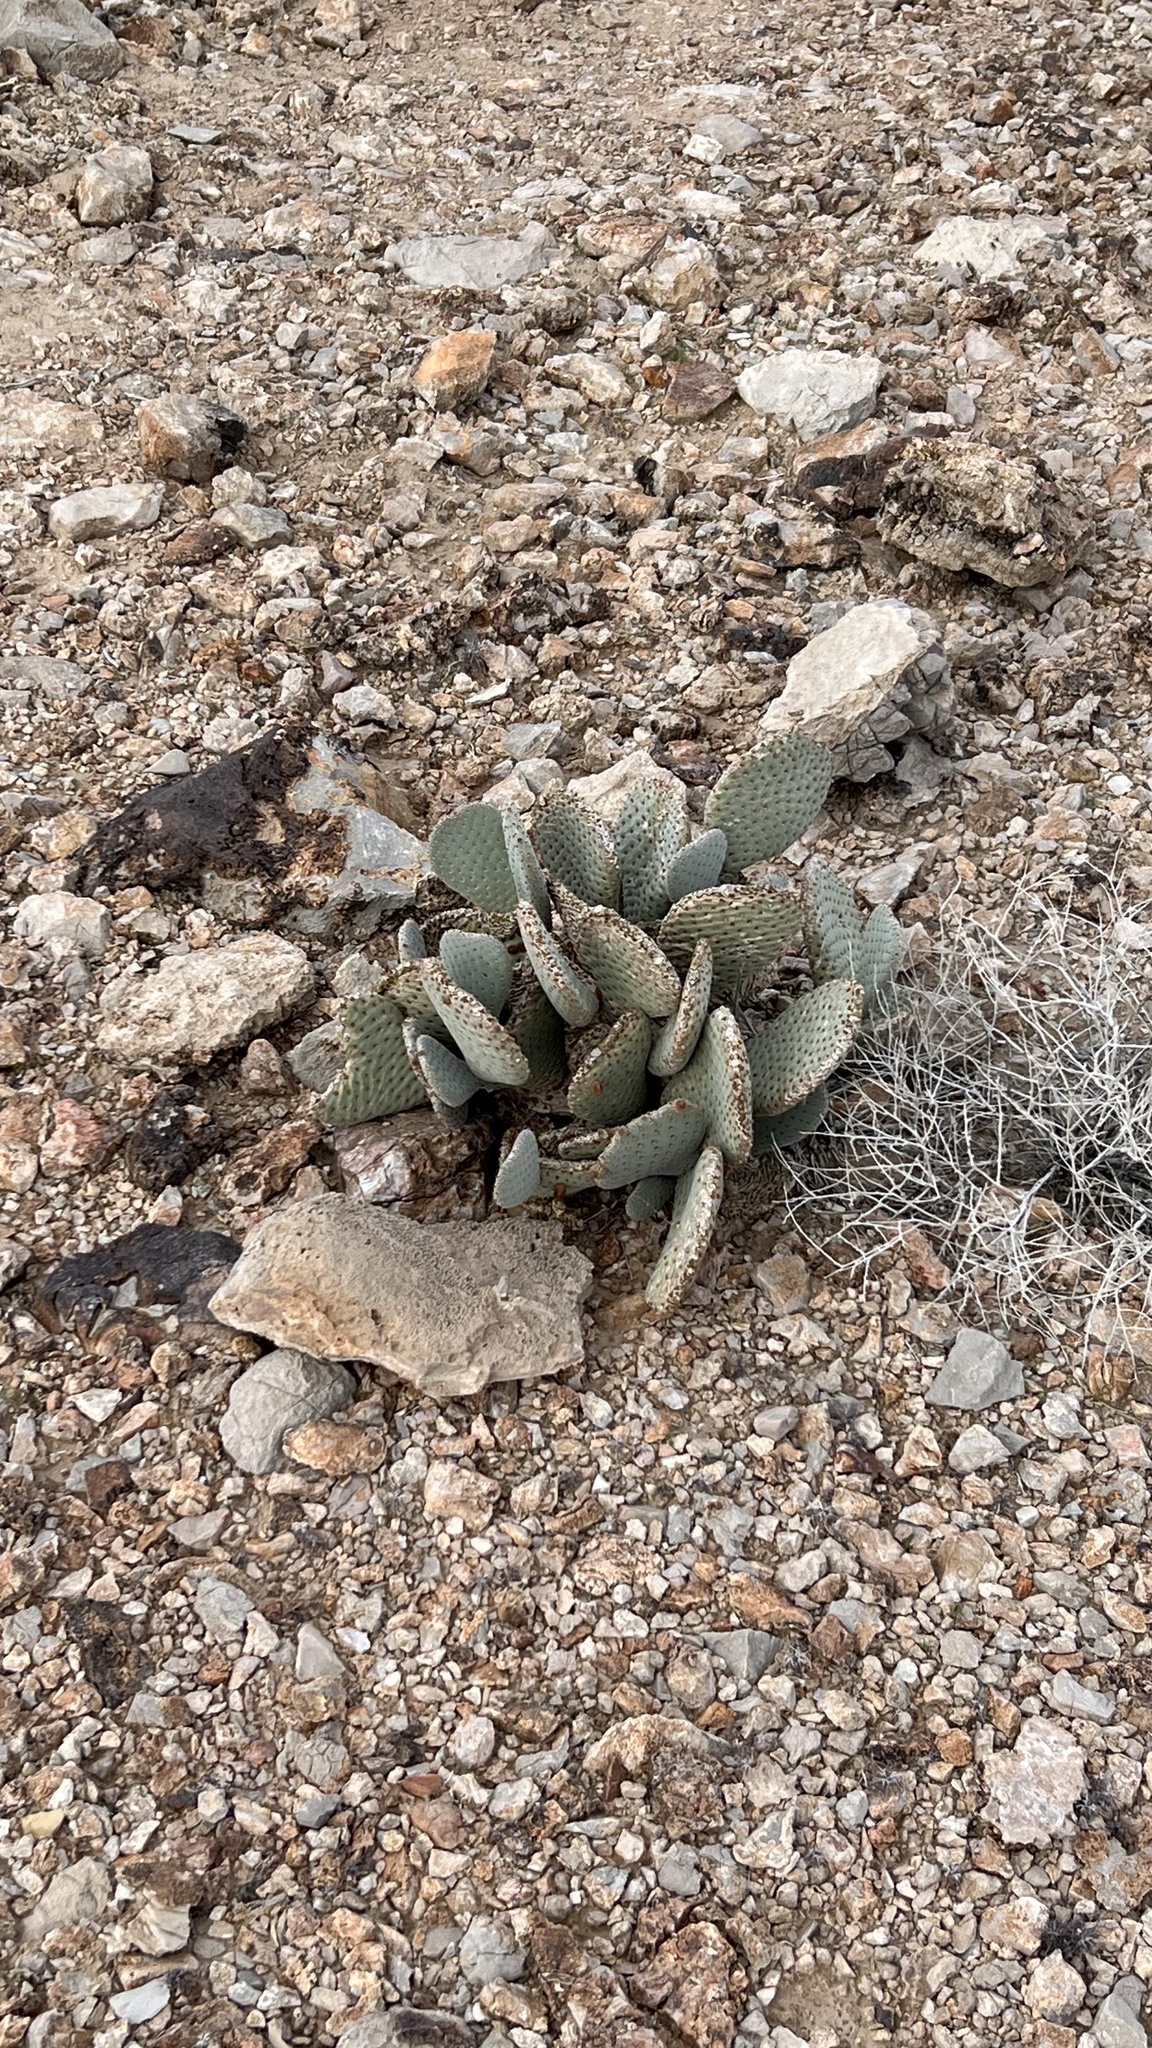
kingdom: Plantae
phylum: Tracheophyta
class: Magnoliopsida
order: Caryophyllales
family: Cactaceae
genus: Opuntia
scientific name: Opuntia basilaris
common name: Beavertail prickly-pear
